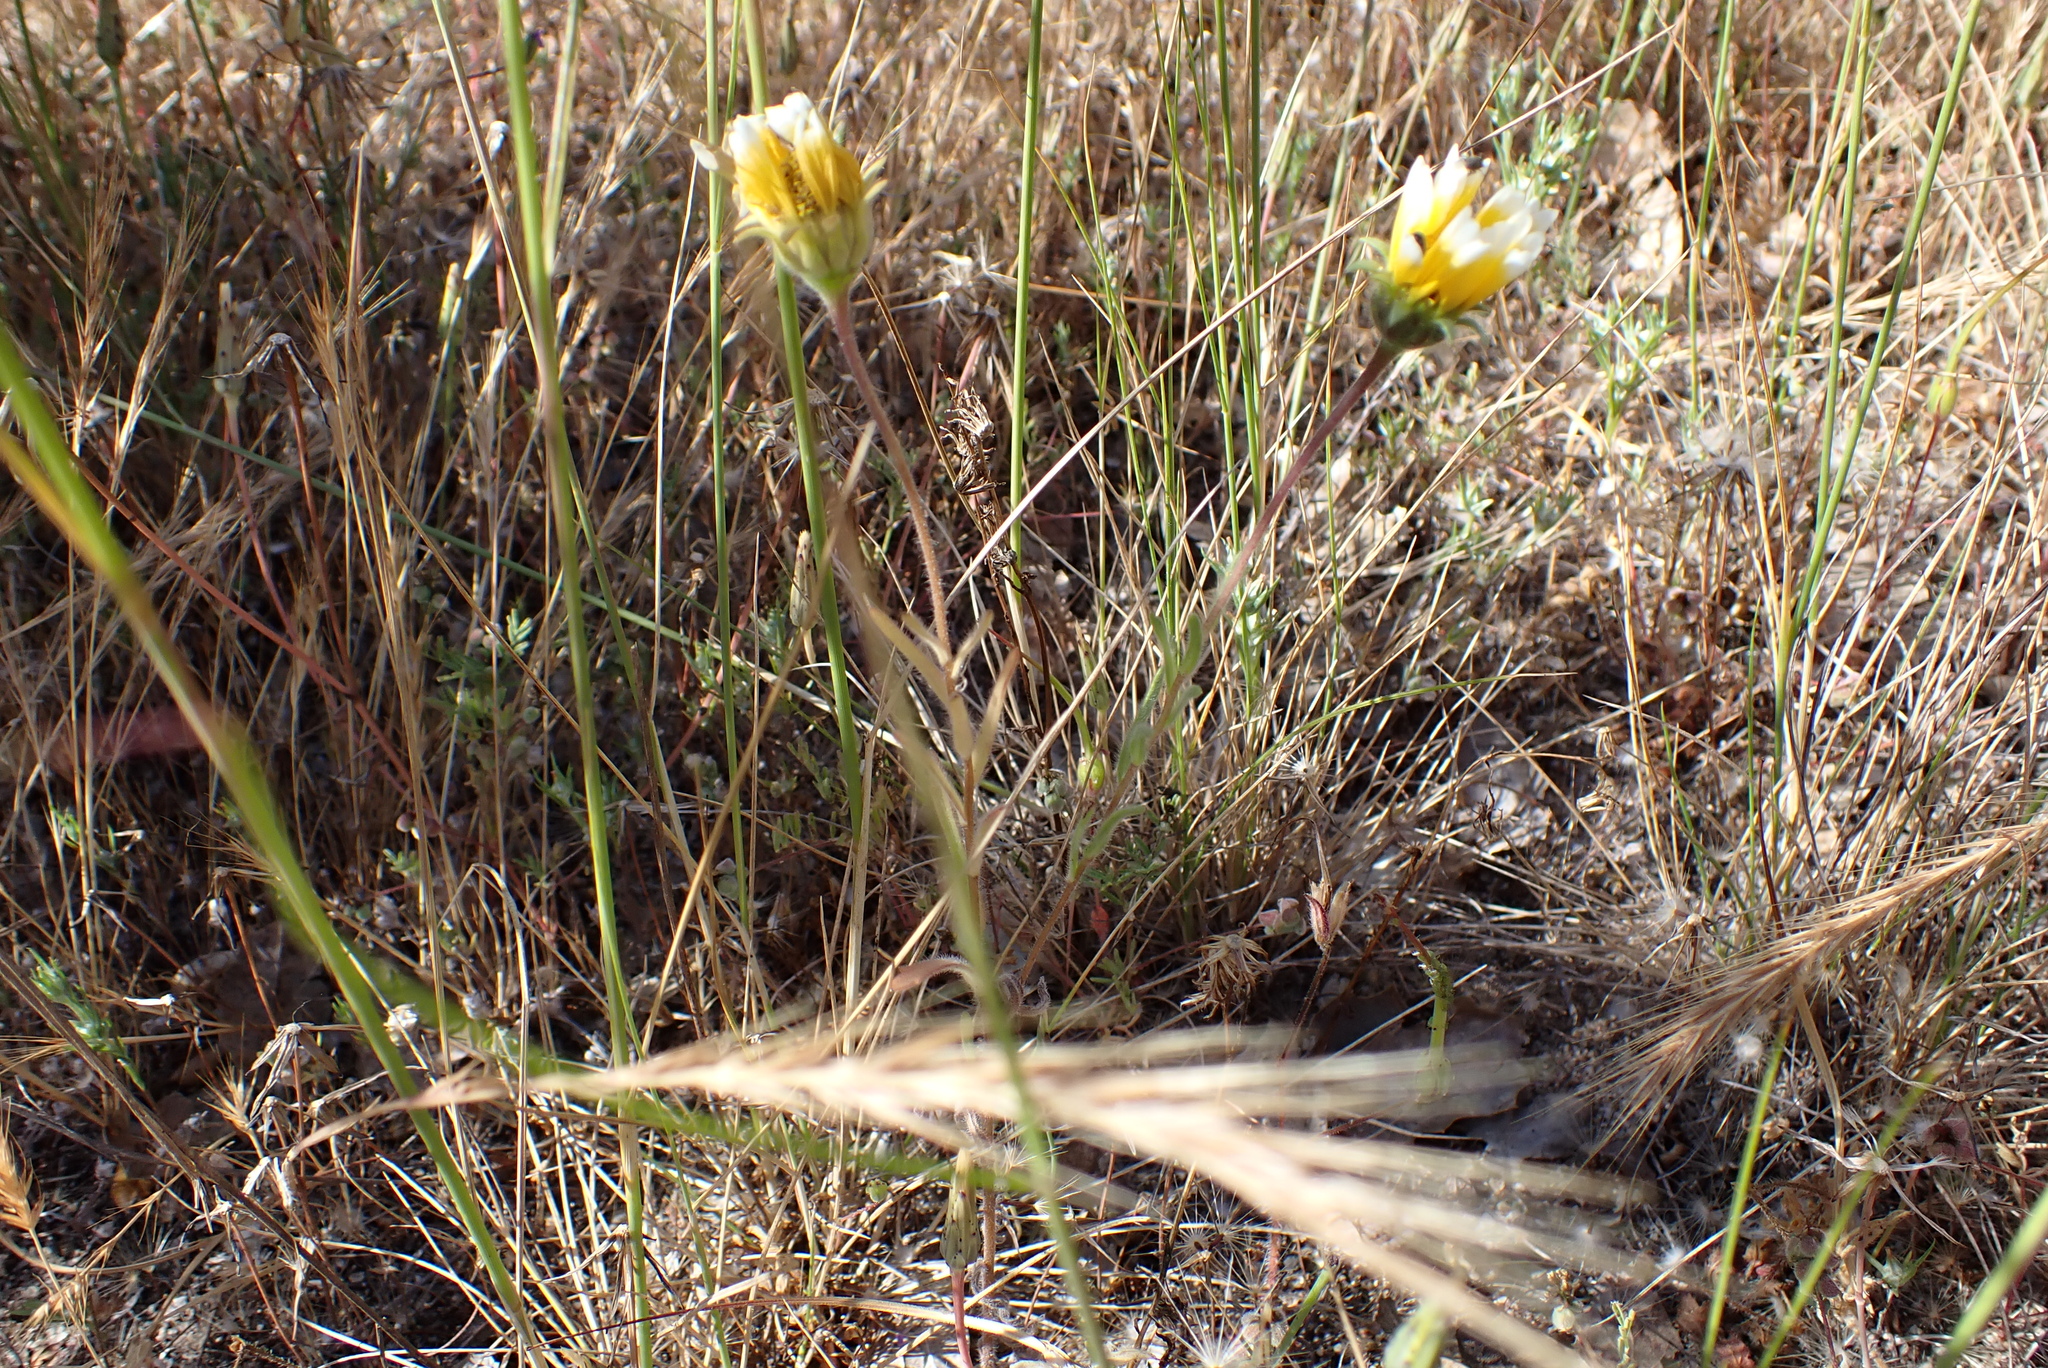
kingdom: Plantae
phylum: Tracheophyta
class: Magnoliopsida
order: Asterales
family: Asteraceae
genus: Layia
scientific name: Layia platyglossa
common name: Tidy-tips
